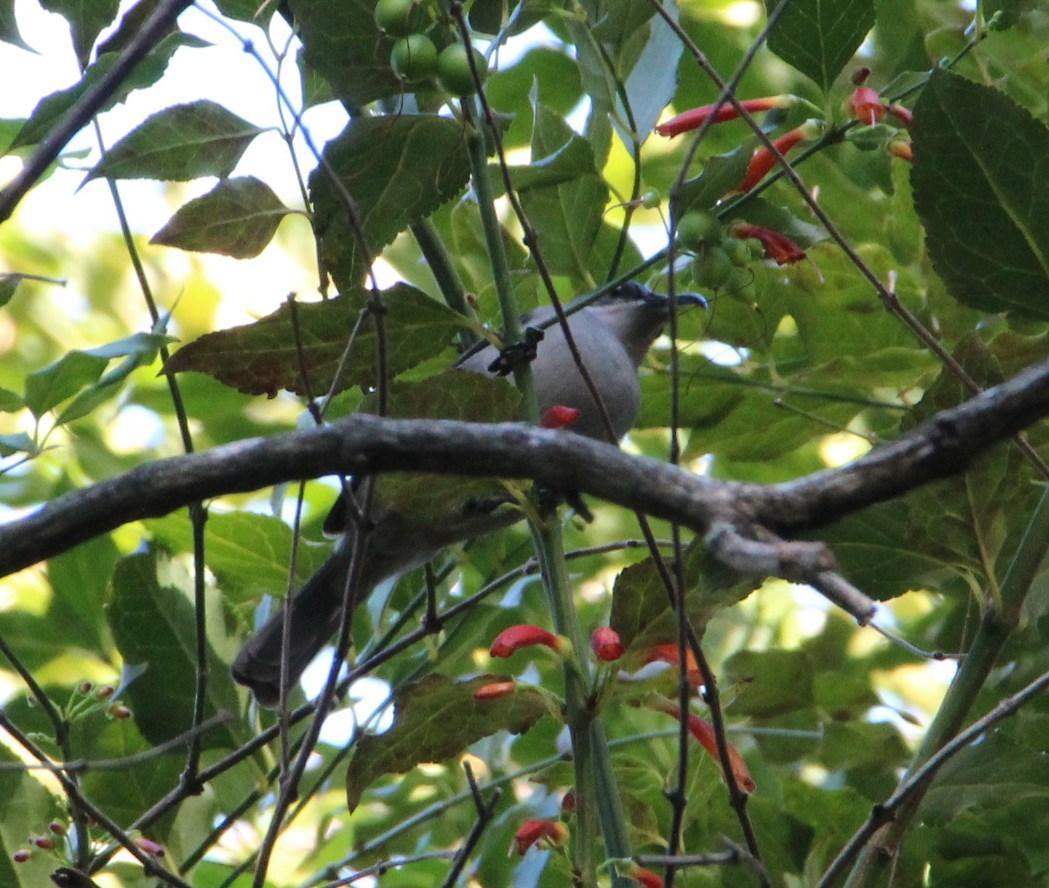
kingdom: Animalia
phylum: Chordata
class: Aves
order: Passeriformes
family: Nectariniidae
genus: Cyanomitra
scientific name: Cyanomitra veroxii
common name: Grey sunbird
